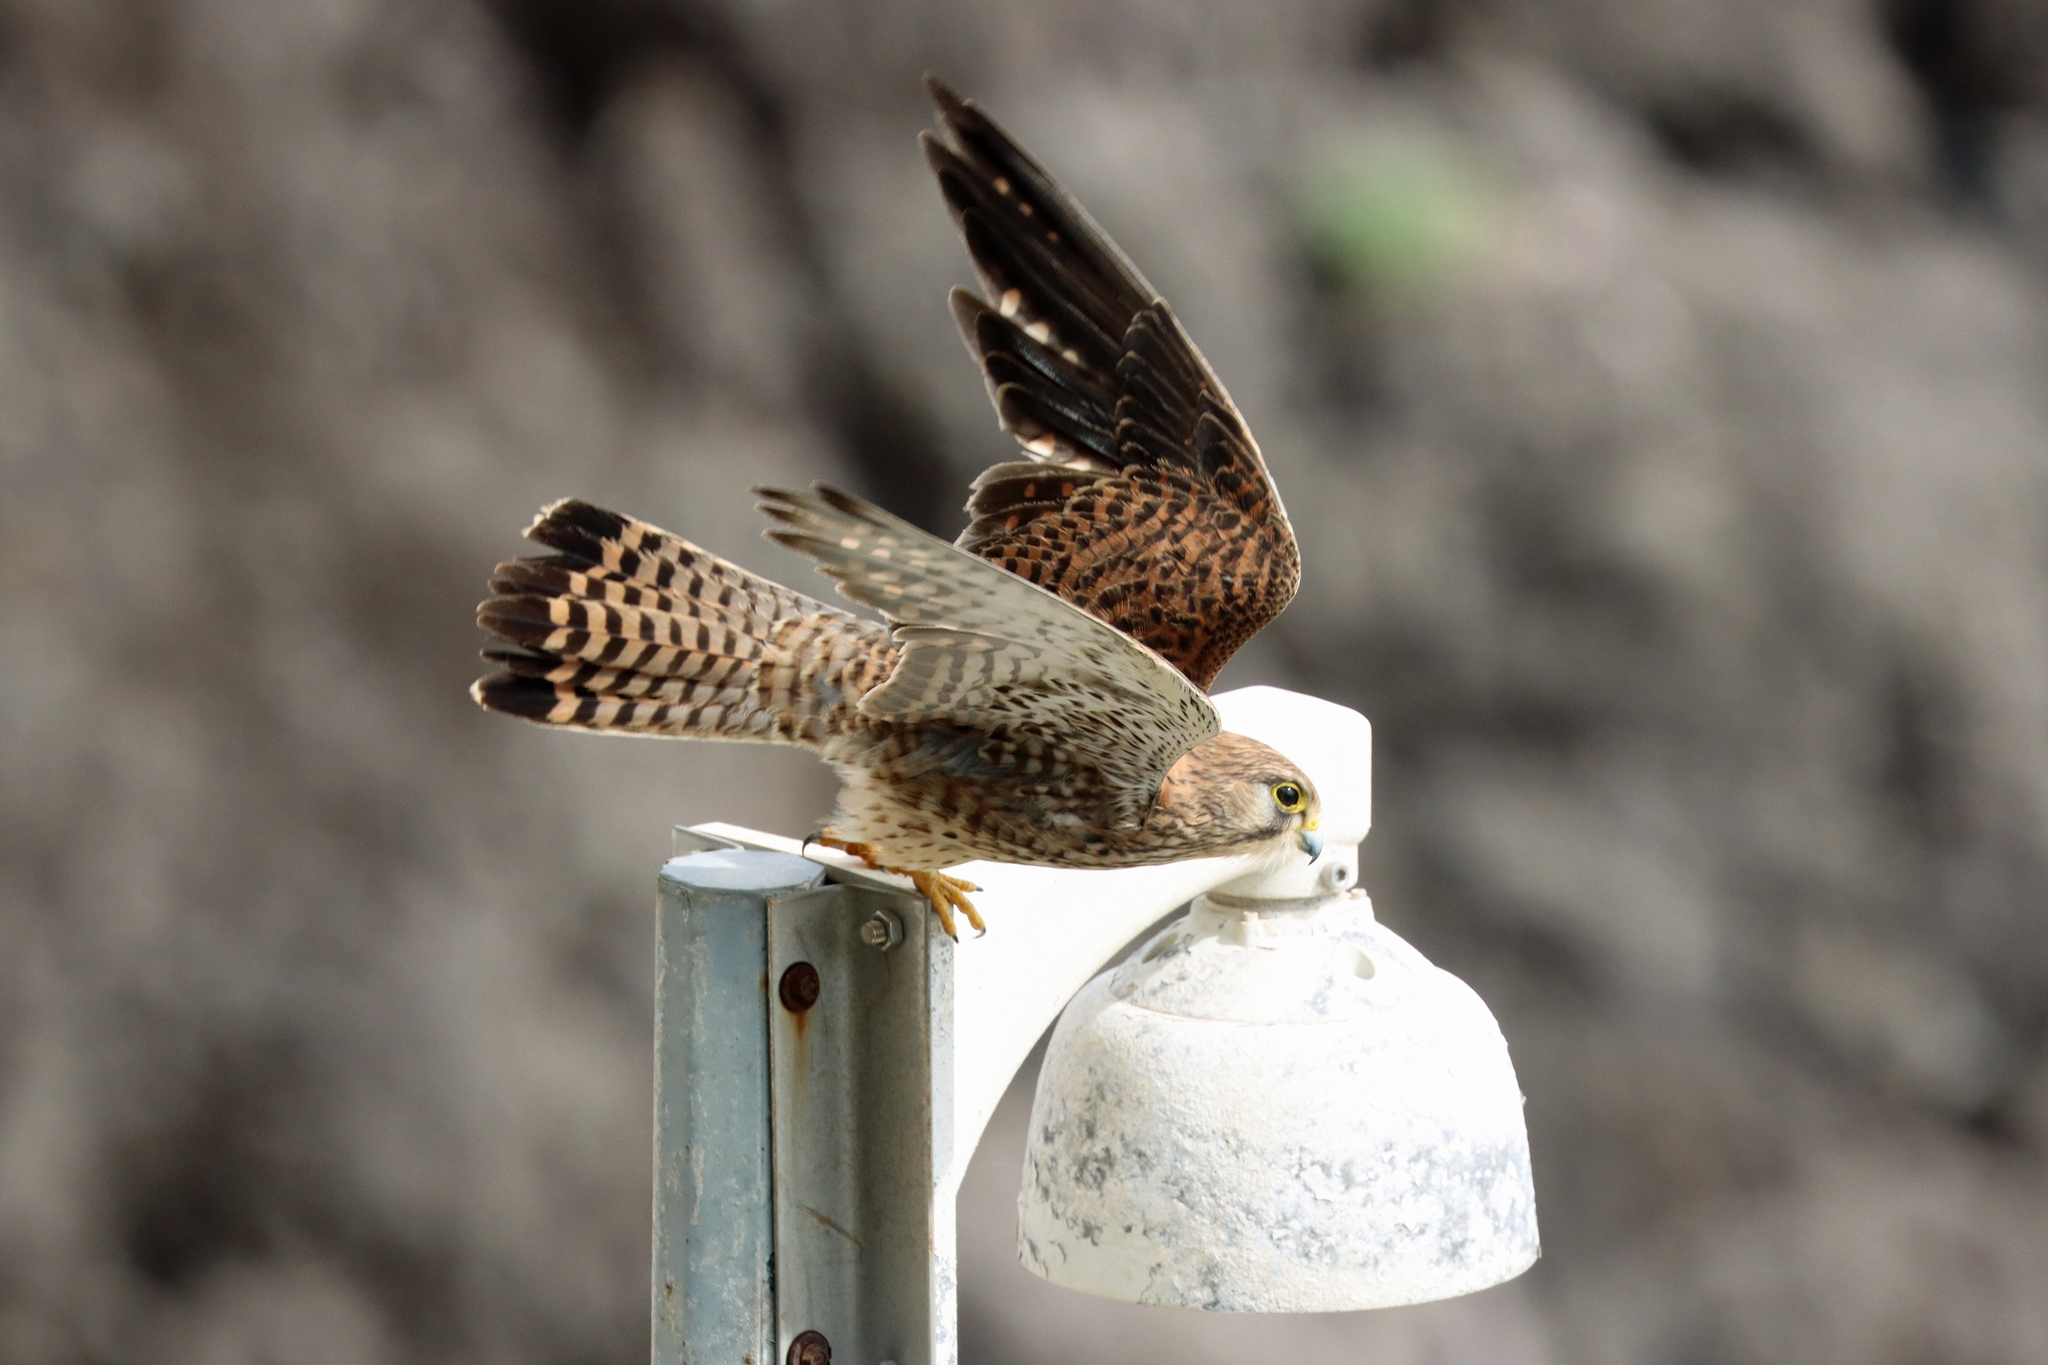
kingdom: Animalia
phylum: Chordata
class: Aves
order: Falconiformes
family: Falconidae
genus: Falco
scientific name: Falco tinnunculus
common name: Common kestrel
